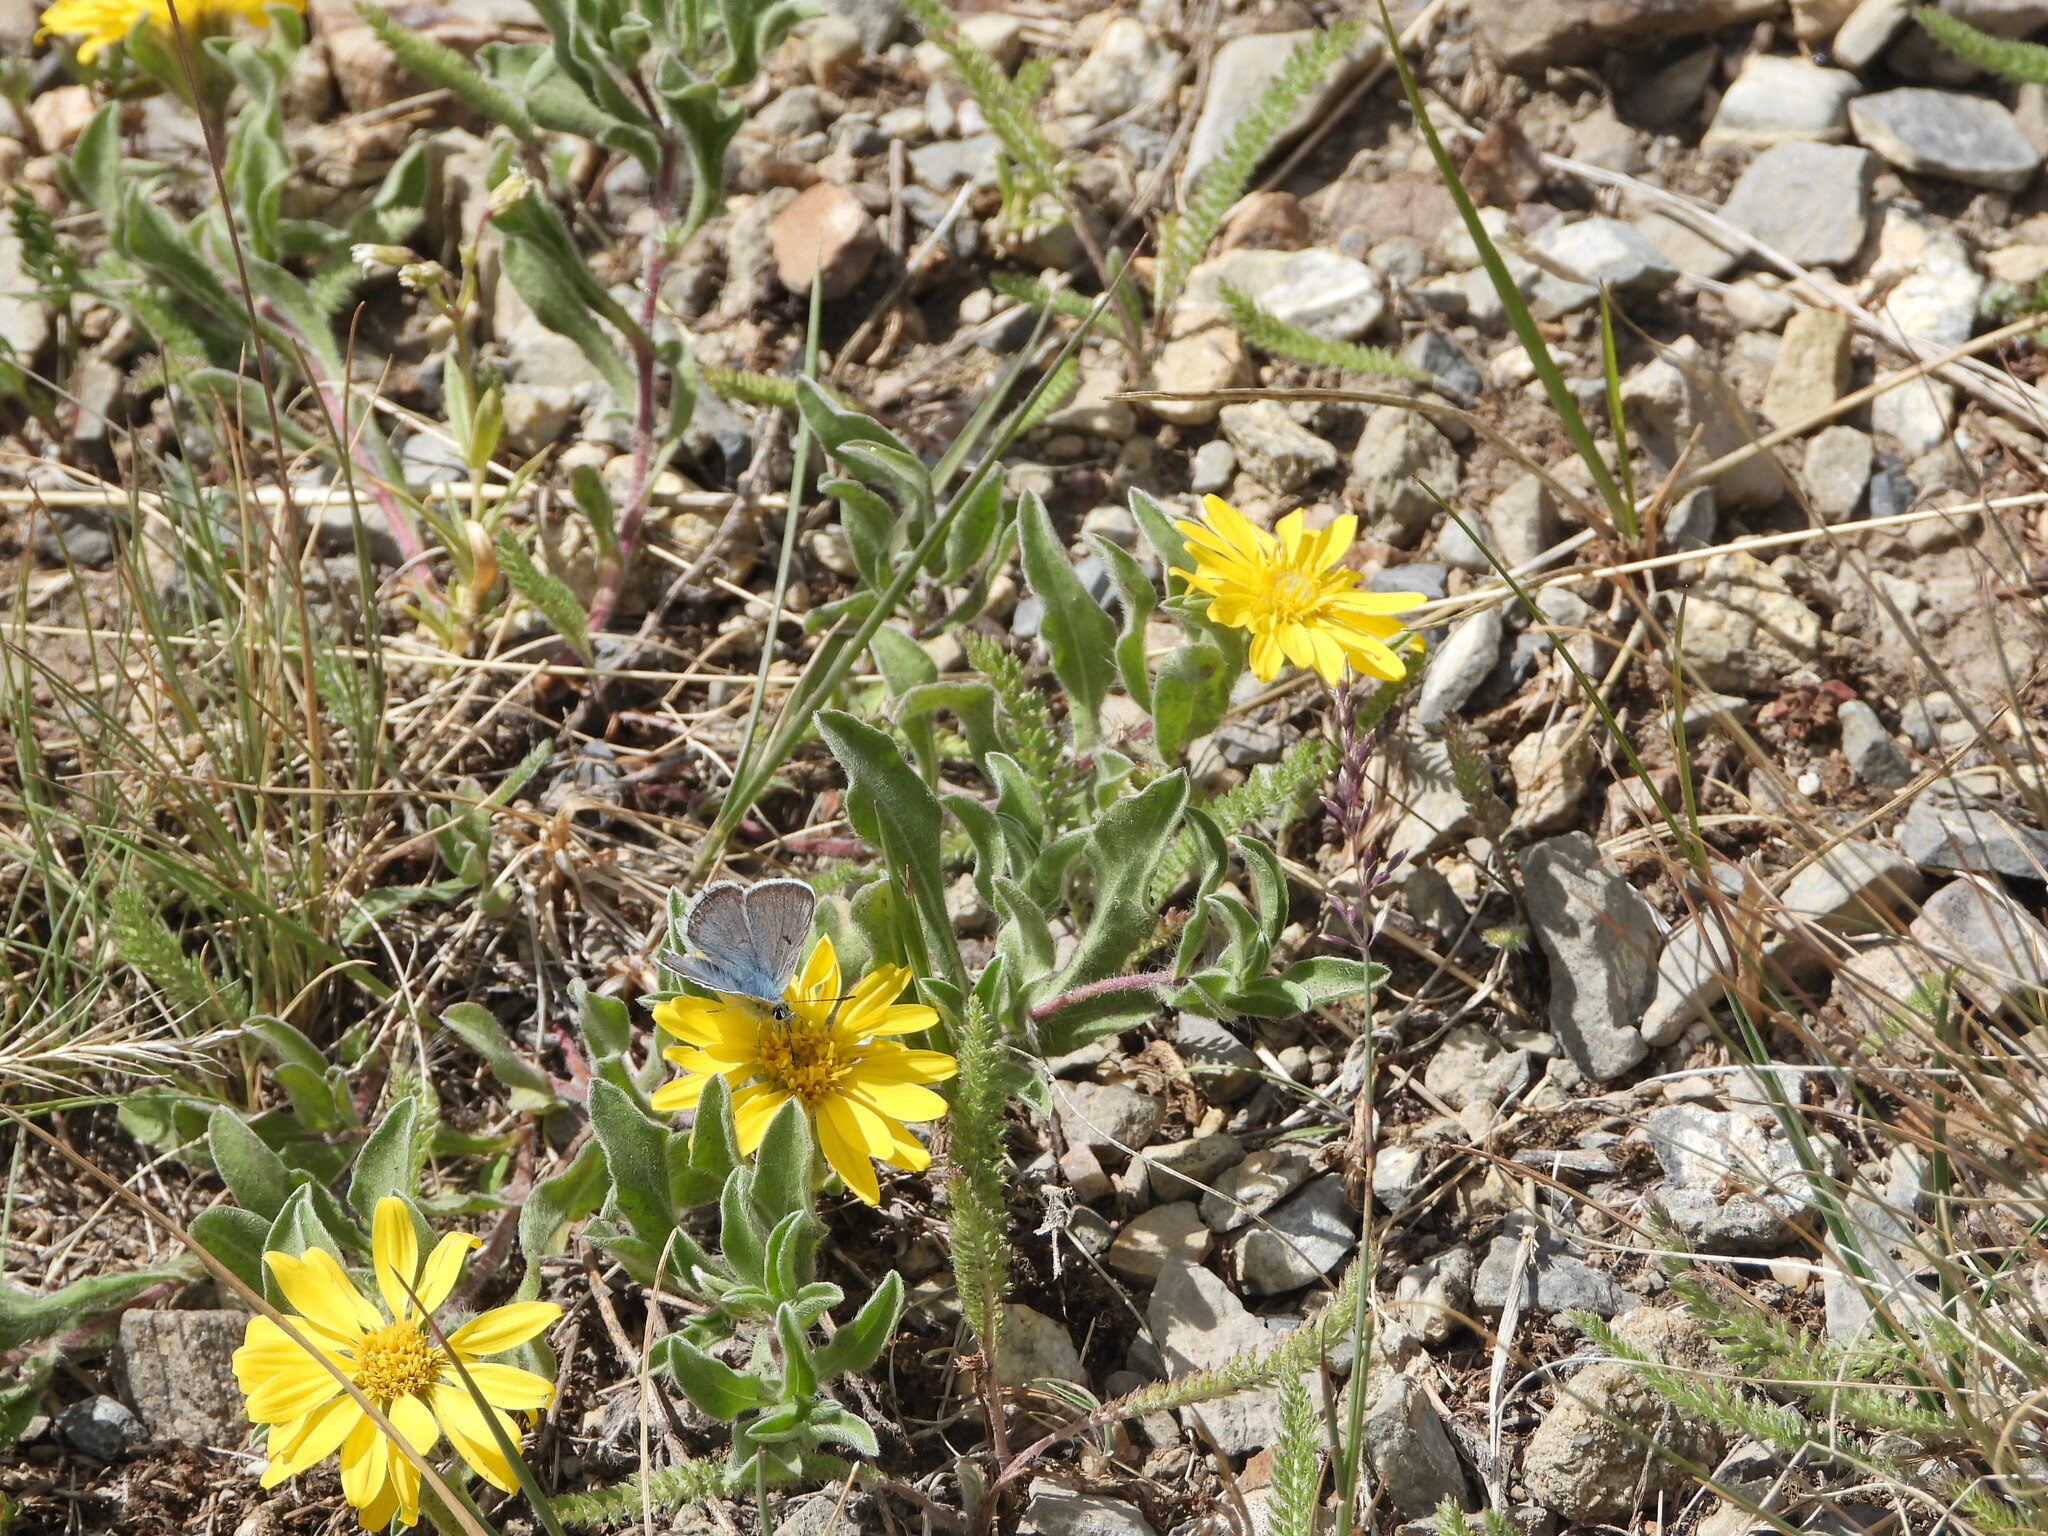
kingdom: Plantae
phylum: Tracheophyta
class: Magnoliopsida
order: Asterales
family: Asteraceae
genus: Heterotheca
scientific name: Heterotheca pumila
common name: Alpine golden-aster
